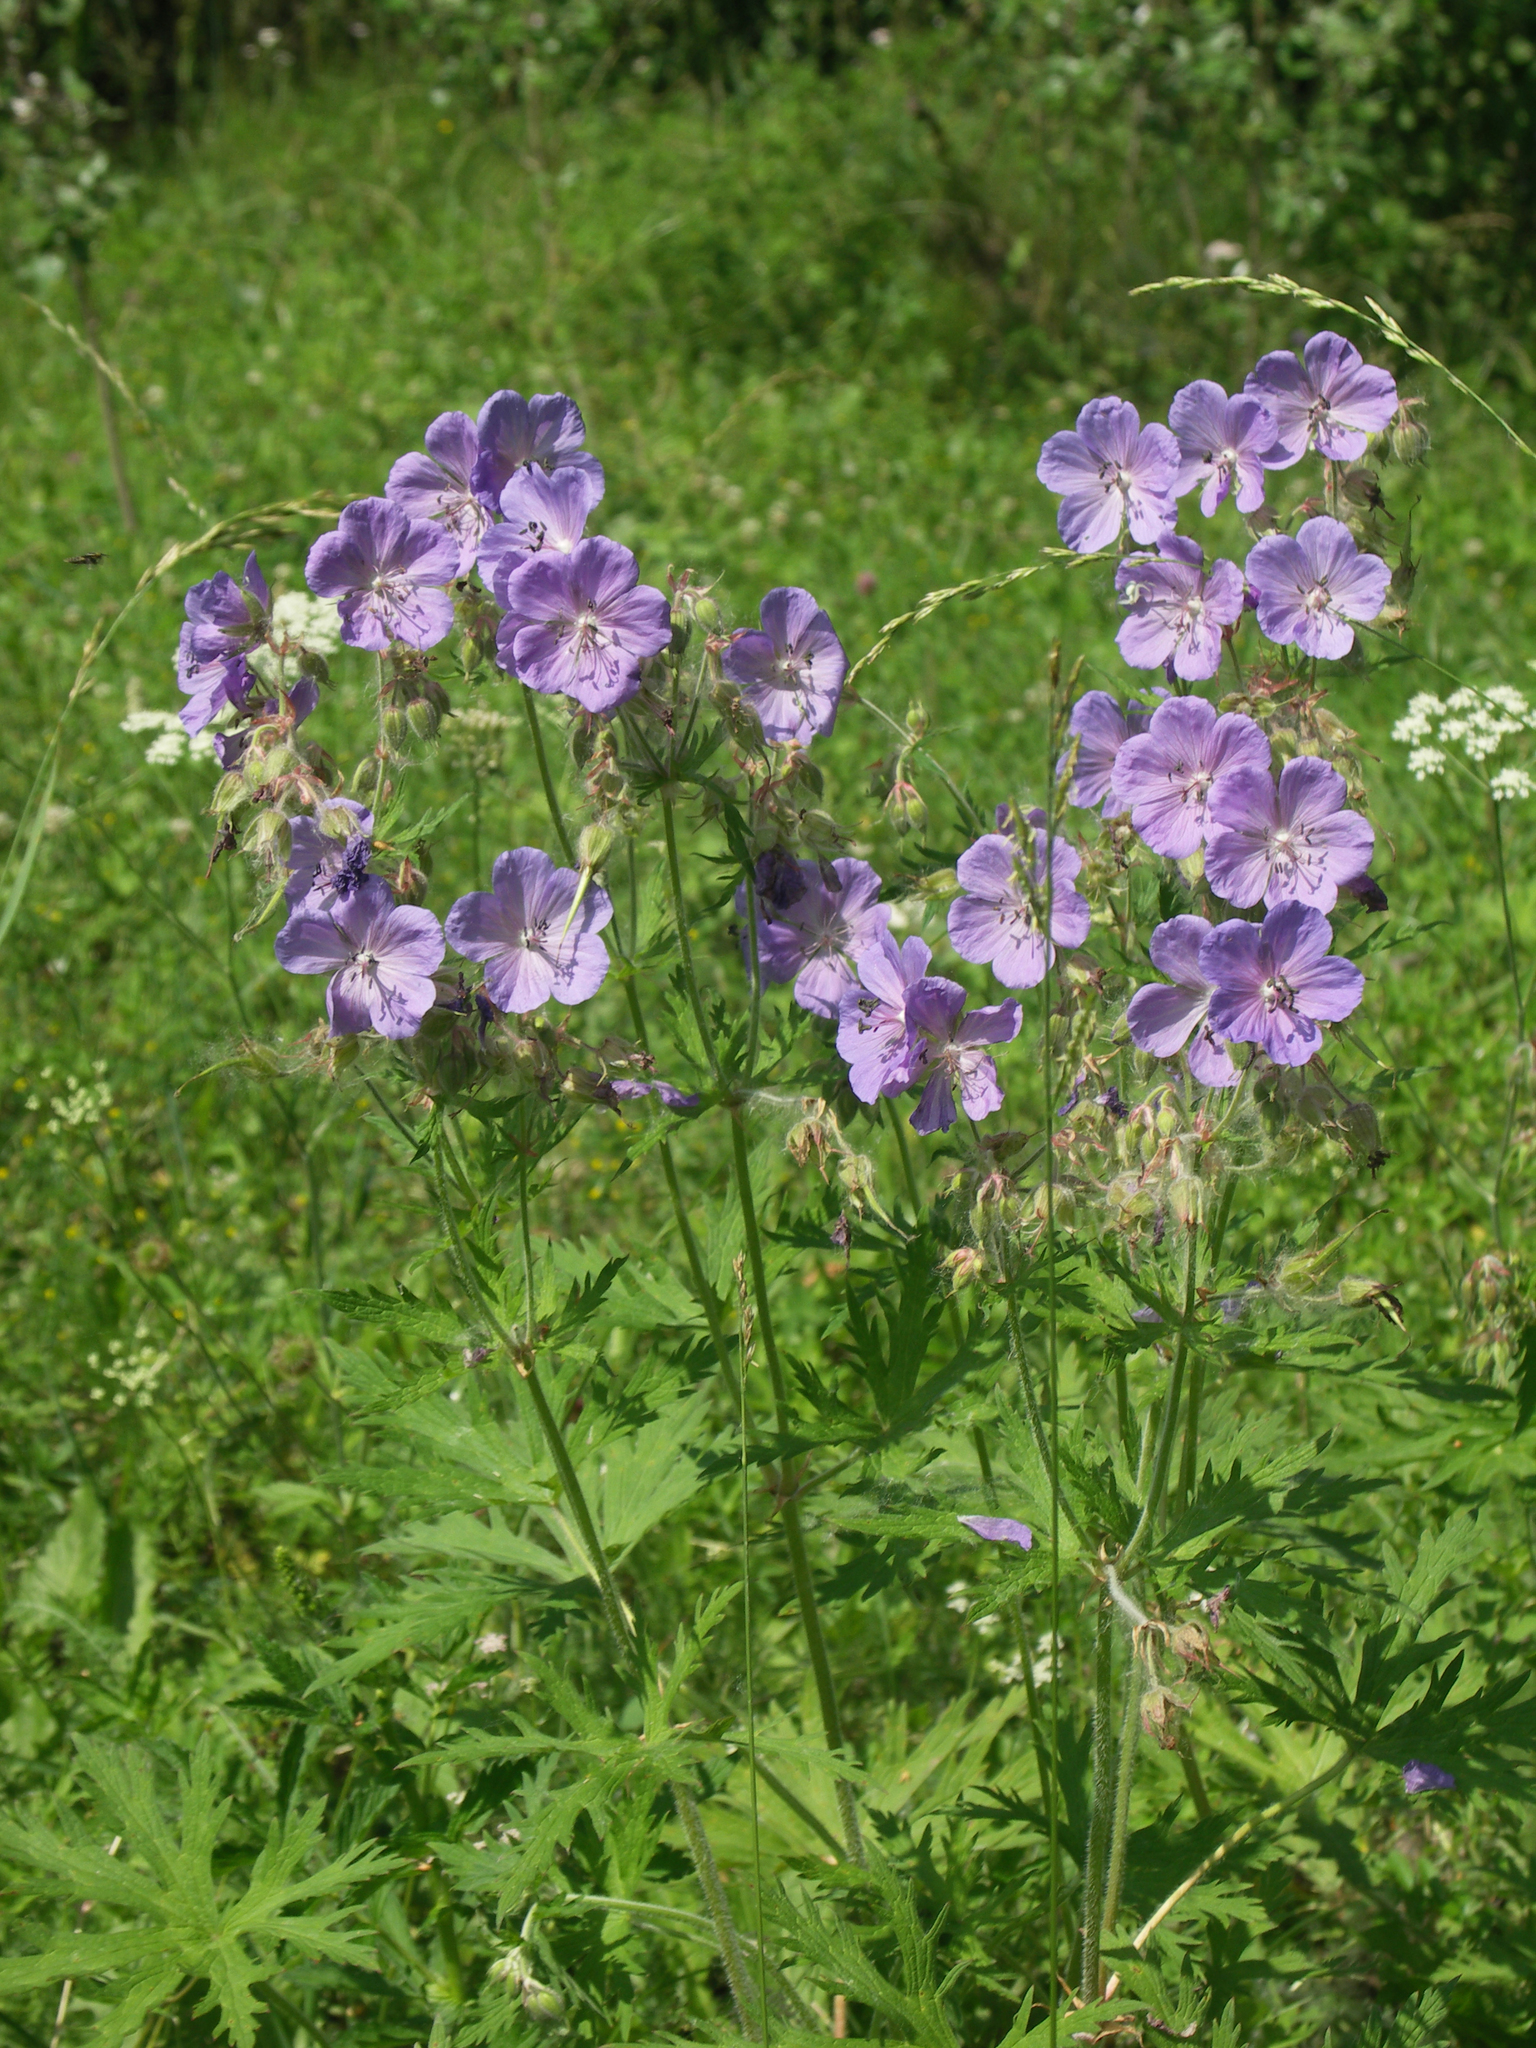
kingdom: Plantae
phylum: Tracheophyta
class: Magnoliopsida
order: Geraniales
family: Geraniaceae
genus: Geranium
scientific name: Geranium pratense
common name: Meadow crane's-bill
